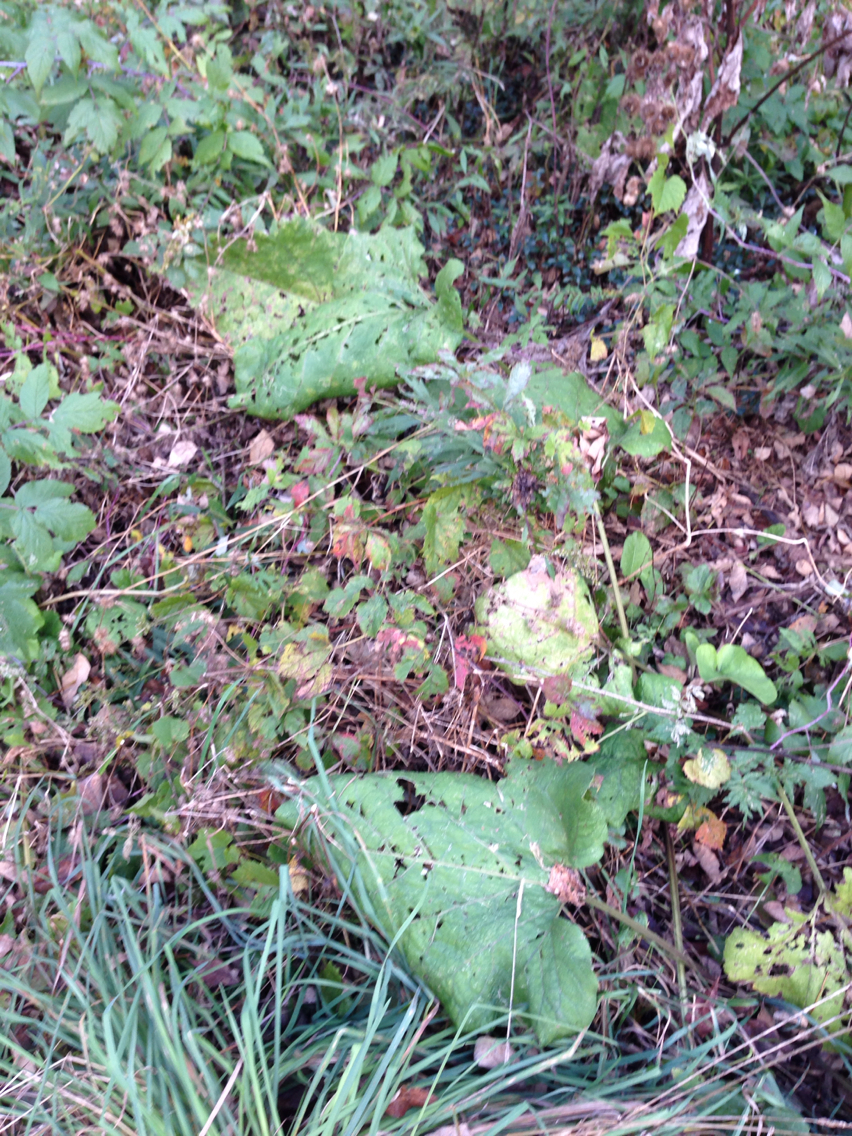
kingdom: Plantae
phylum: Tracheophyta
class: Magnoliopsida
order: Asterales
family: Asteraceae
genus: Arctium
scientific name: Arctium
